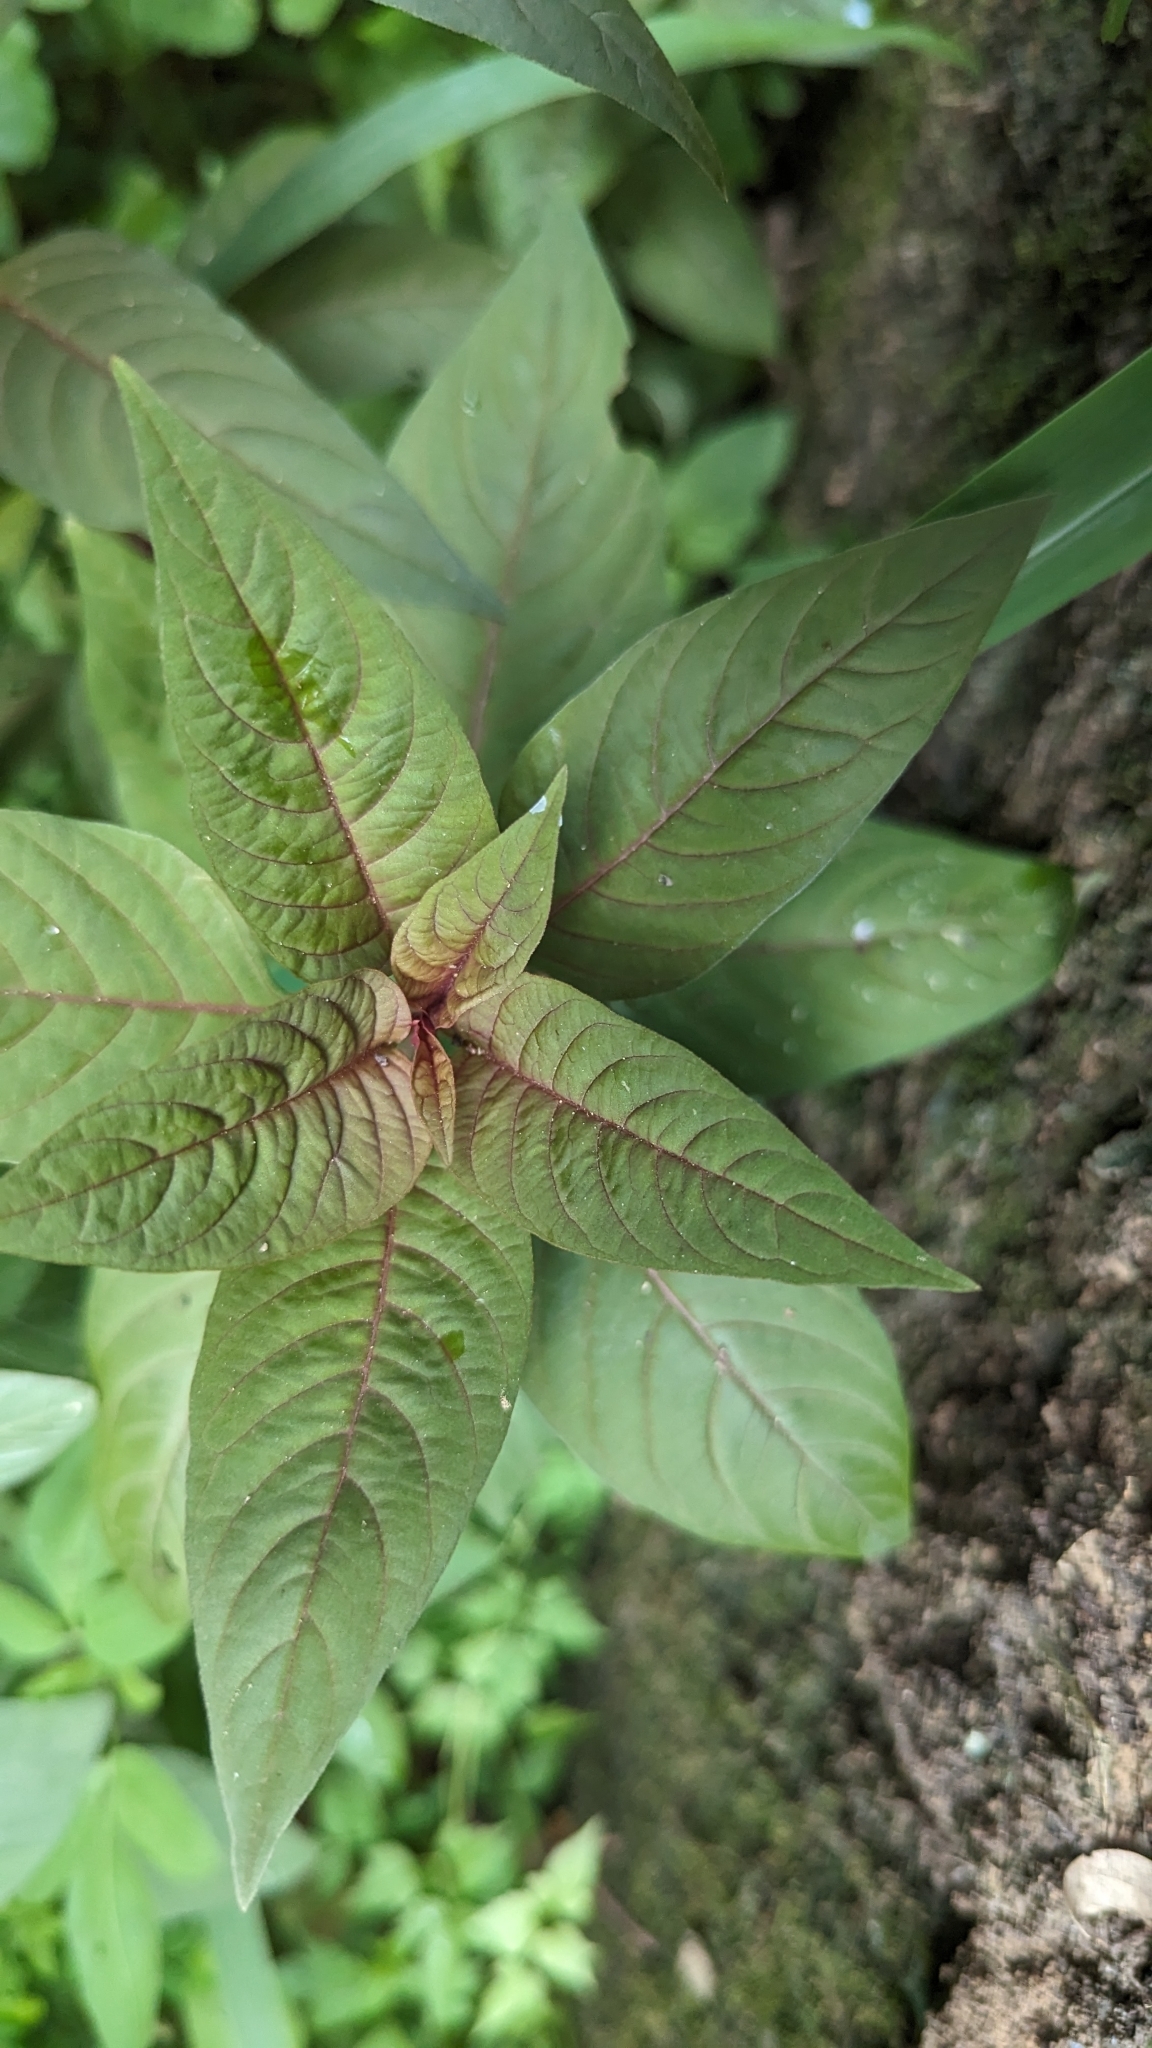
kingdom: Plantae
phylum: Tracheophyta
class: Magnoliopsida
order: Caryophyllales
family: Amaranthaceae
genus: Celosia
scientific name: Celosia argentea
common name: Feather cockscomb
